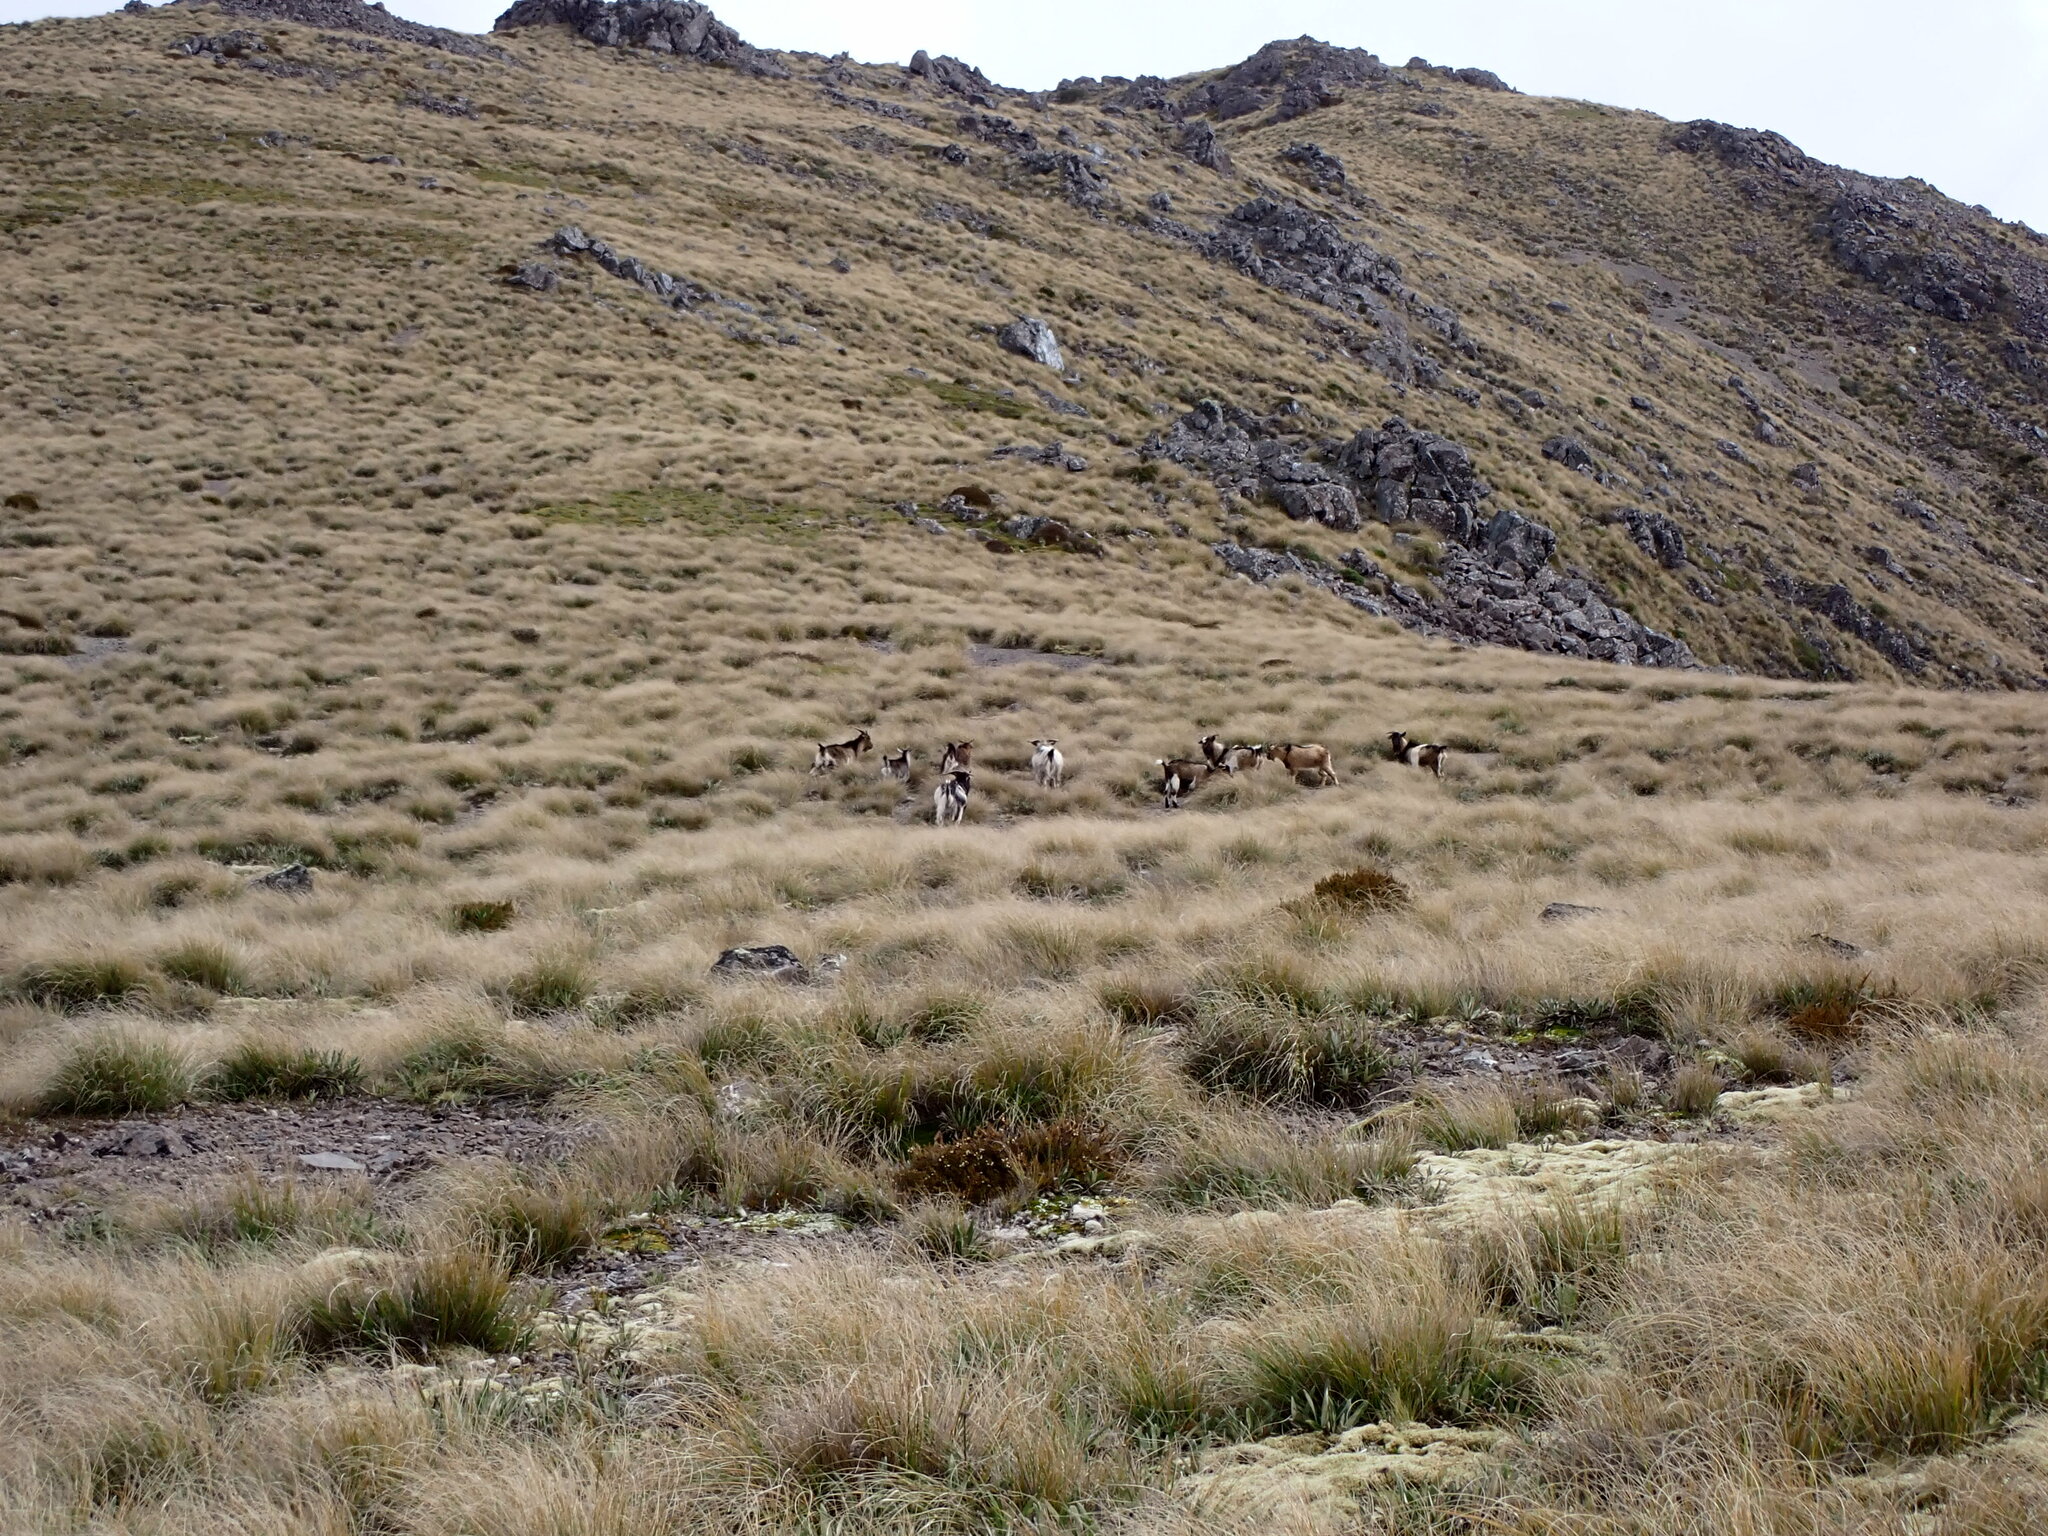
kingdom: Animalia
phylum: Chordata
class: Mammalia
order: Artiodactyla
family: Bovidae
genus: Capra
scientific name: Capra hircus
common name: Domestic goat
